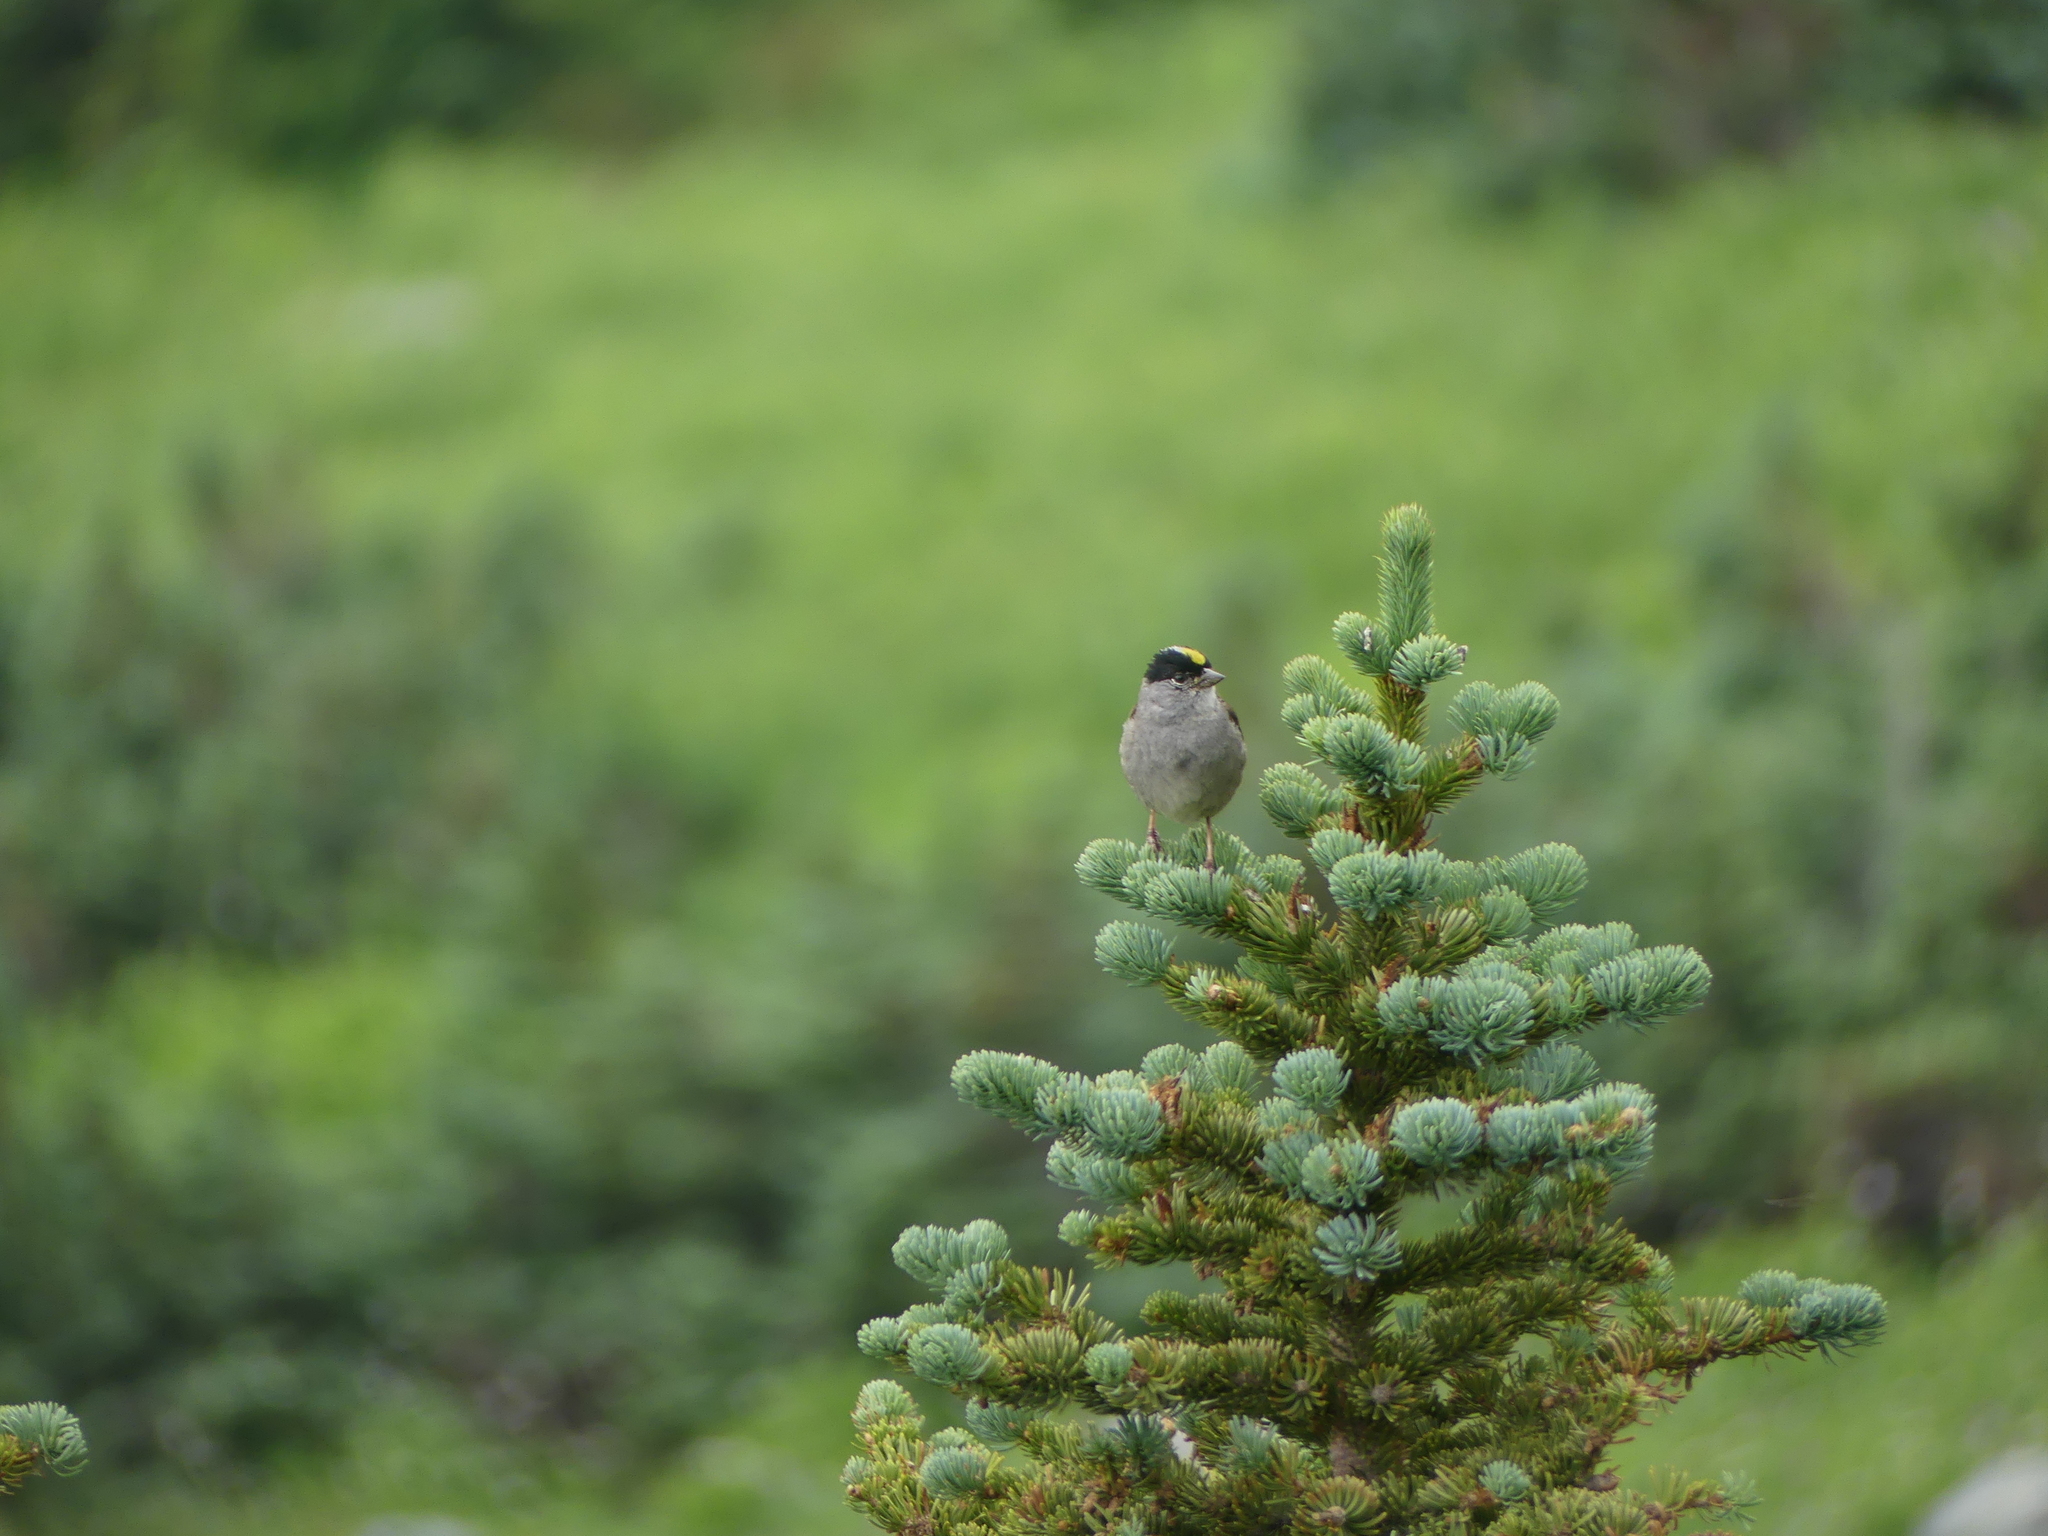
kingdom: Animalia
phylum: Chordata
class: Aves
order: Passeriformes
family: Passerellidae
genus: Zonotrichia
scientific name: Zonotrichia atricapilla
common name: Golden-crowned sparrow
